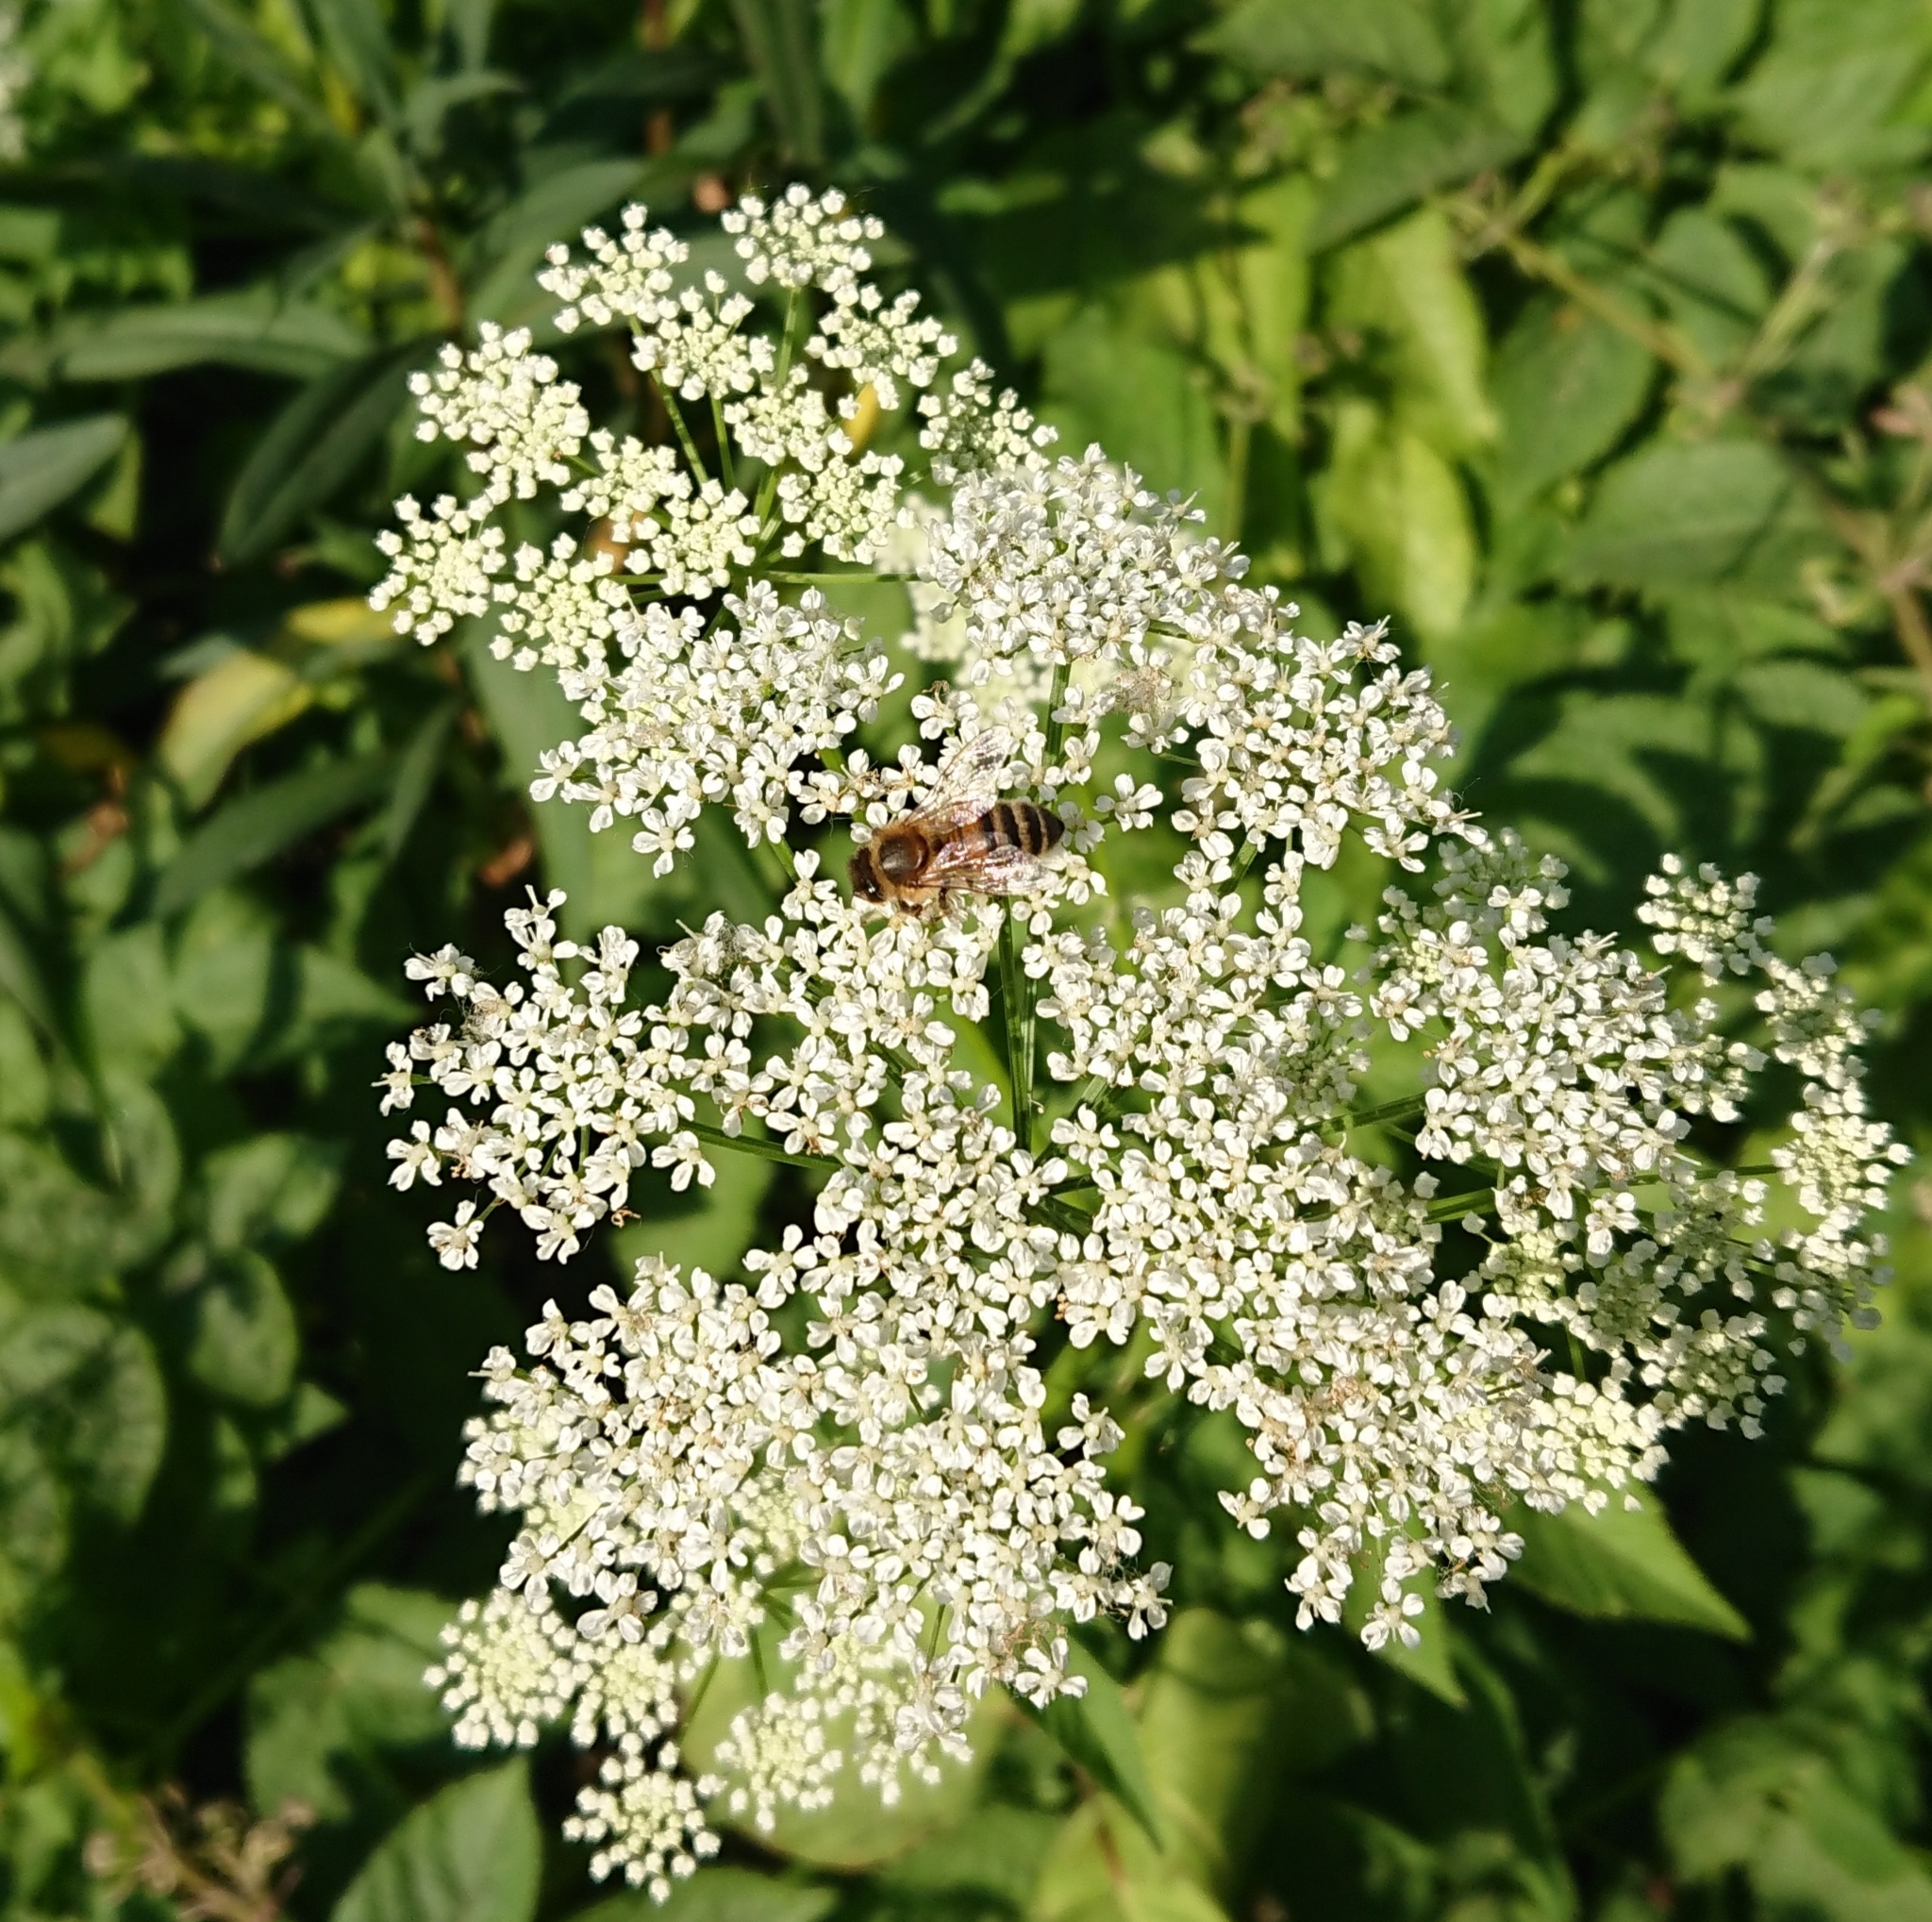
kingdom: Animalia
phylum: Arthropoda
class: Insecta
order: Hymenoptera
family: Apidae
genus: Apis
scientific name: Apis mellifera
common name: Honey bee
